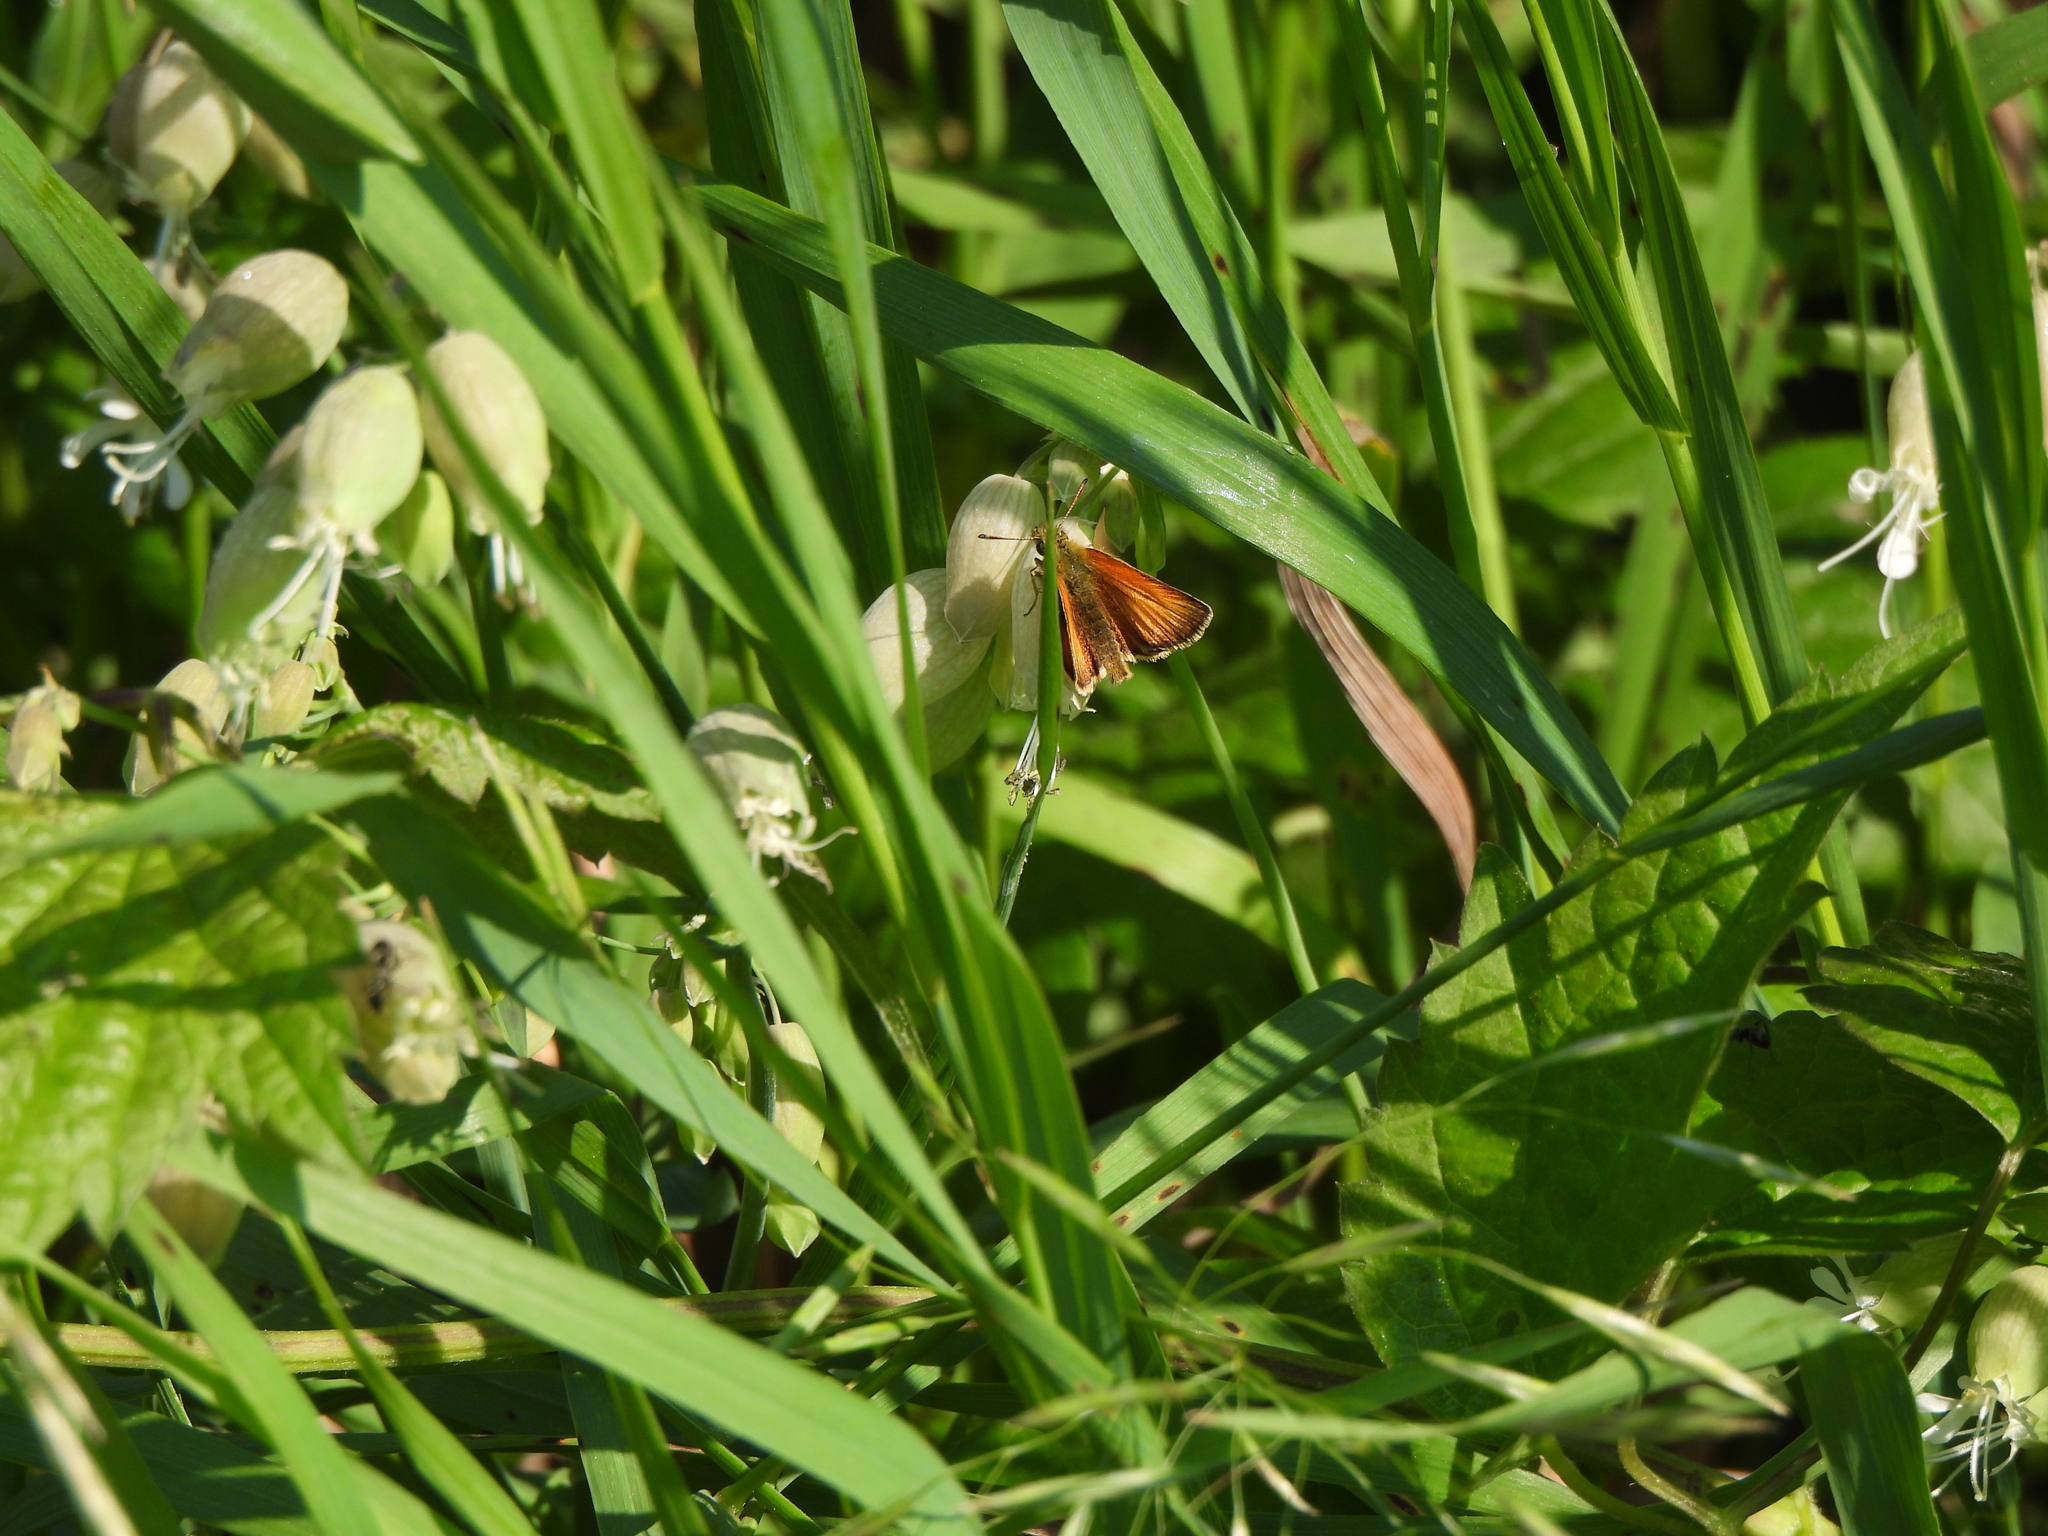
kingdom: Animalia
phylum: Arthropoda
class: Insecta
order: Lepidoptera
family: Hesperiidae
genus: Thymelicus
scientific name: Thymelicus lineola
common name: Essex skipper
